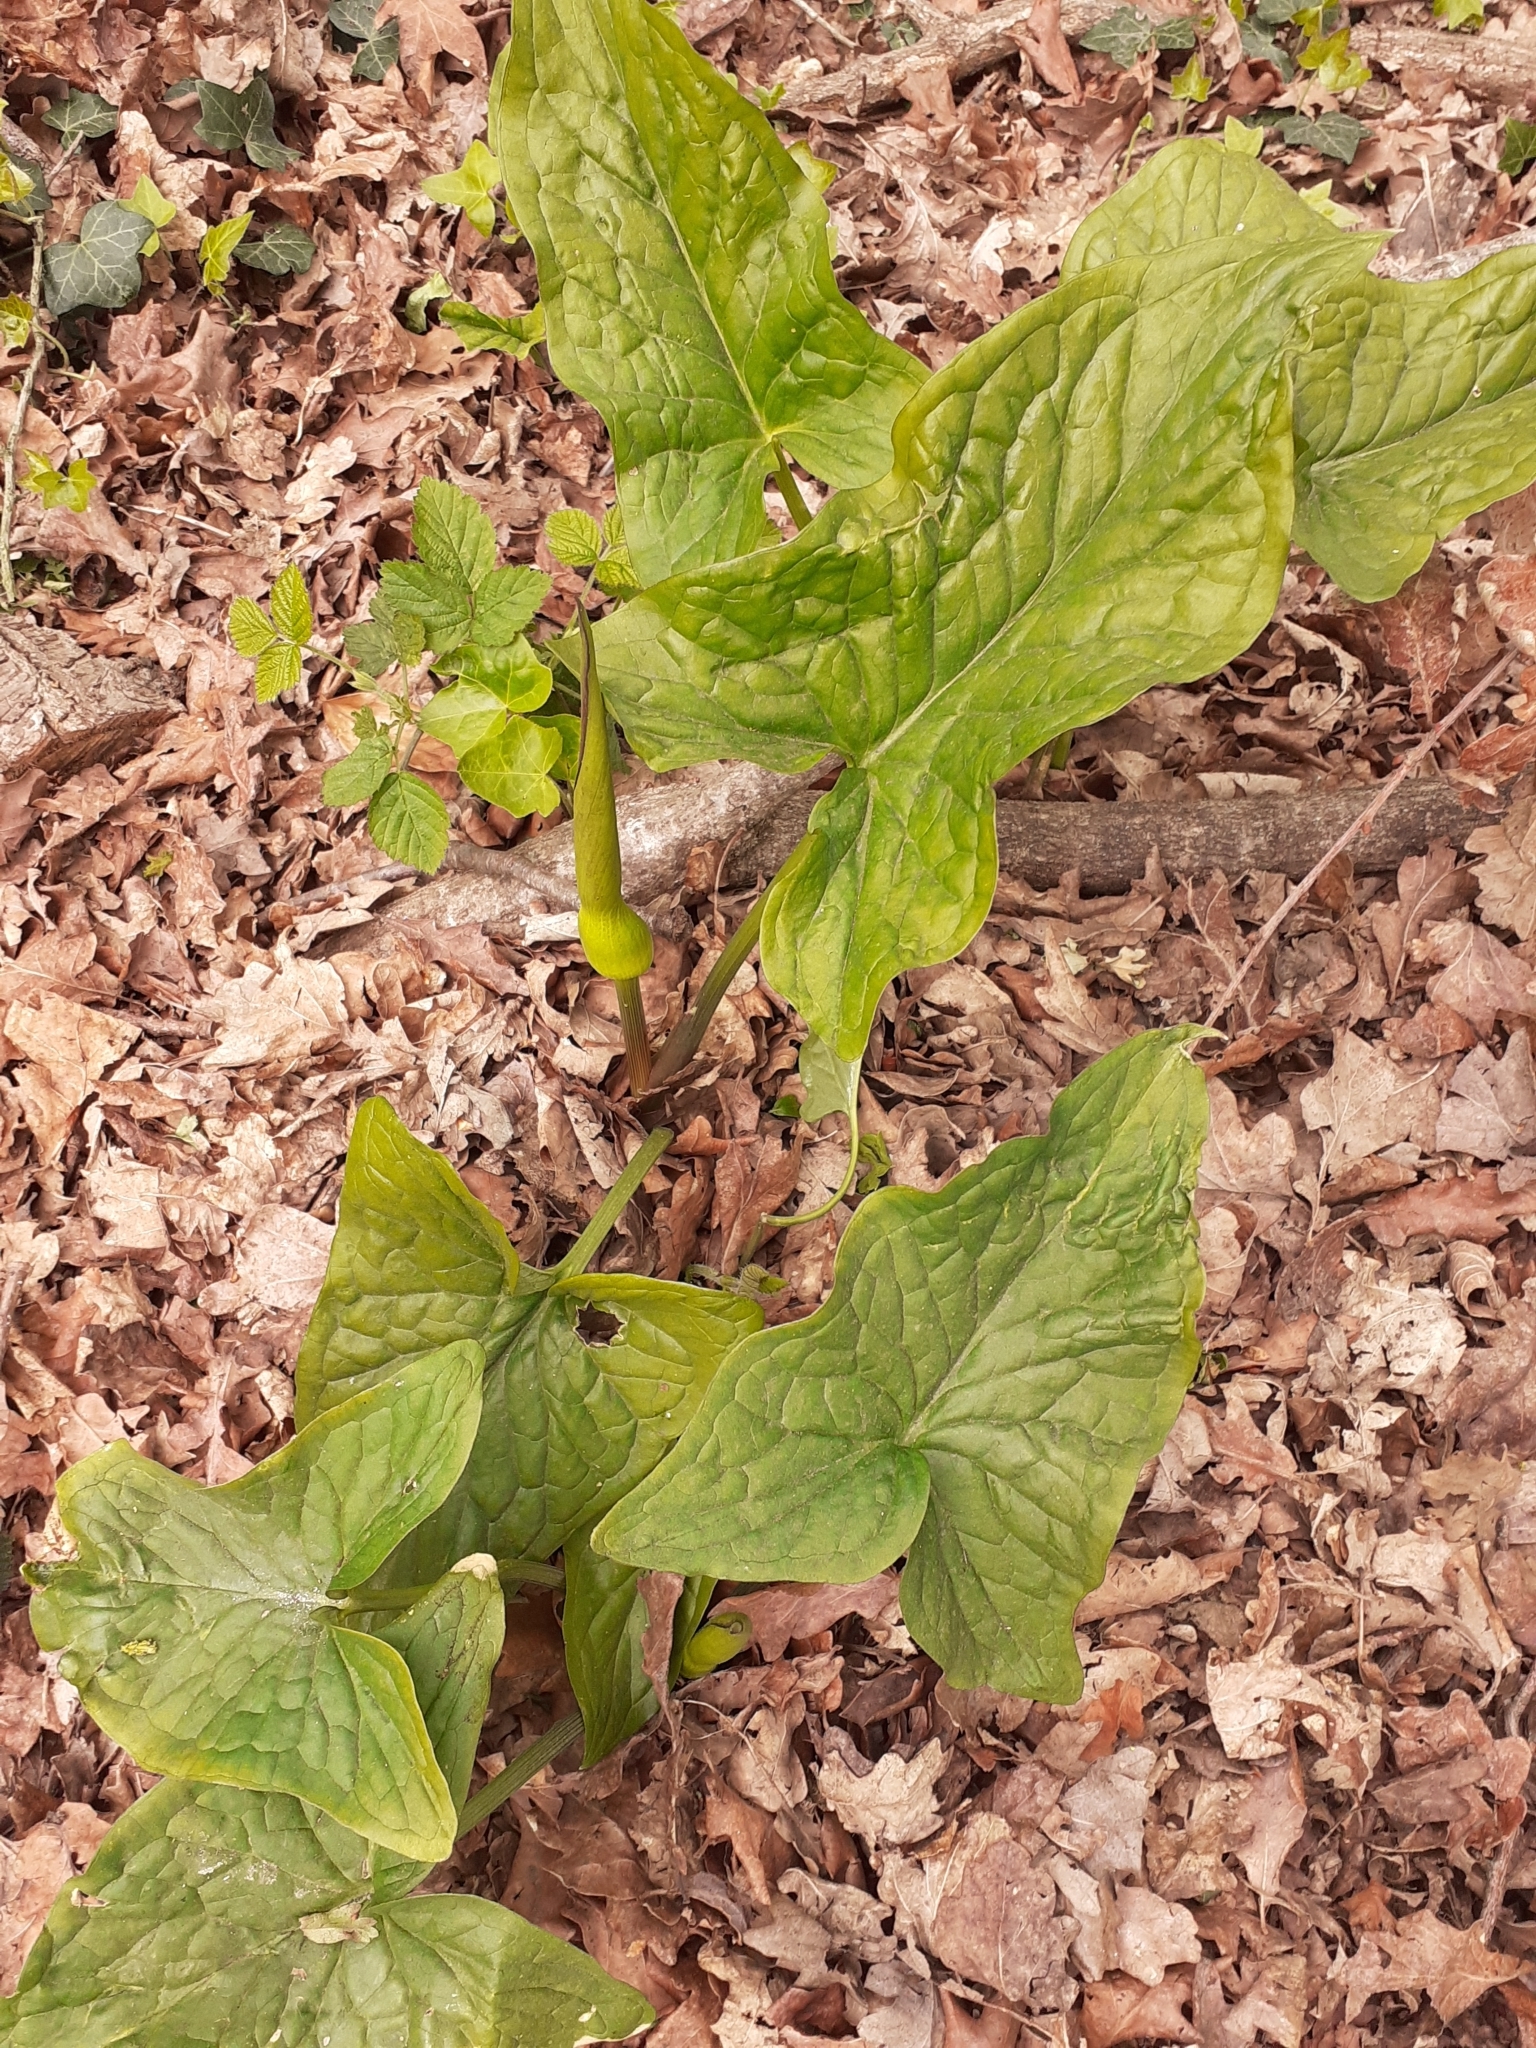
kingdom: Plantae
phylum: Tracheophyta
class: Liliopsida
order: Alismatales
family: Araceae
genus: Arum
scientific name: Arum maculatum
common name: Lords-and-ladies
